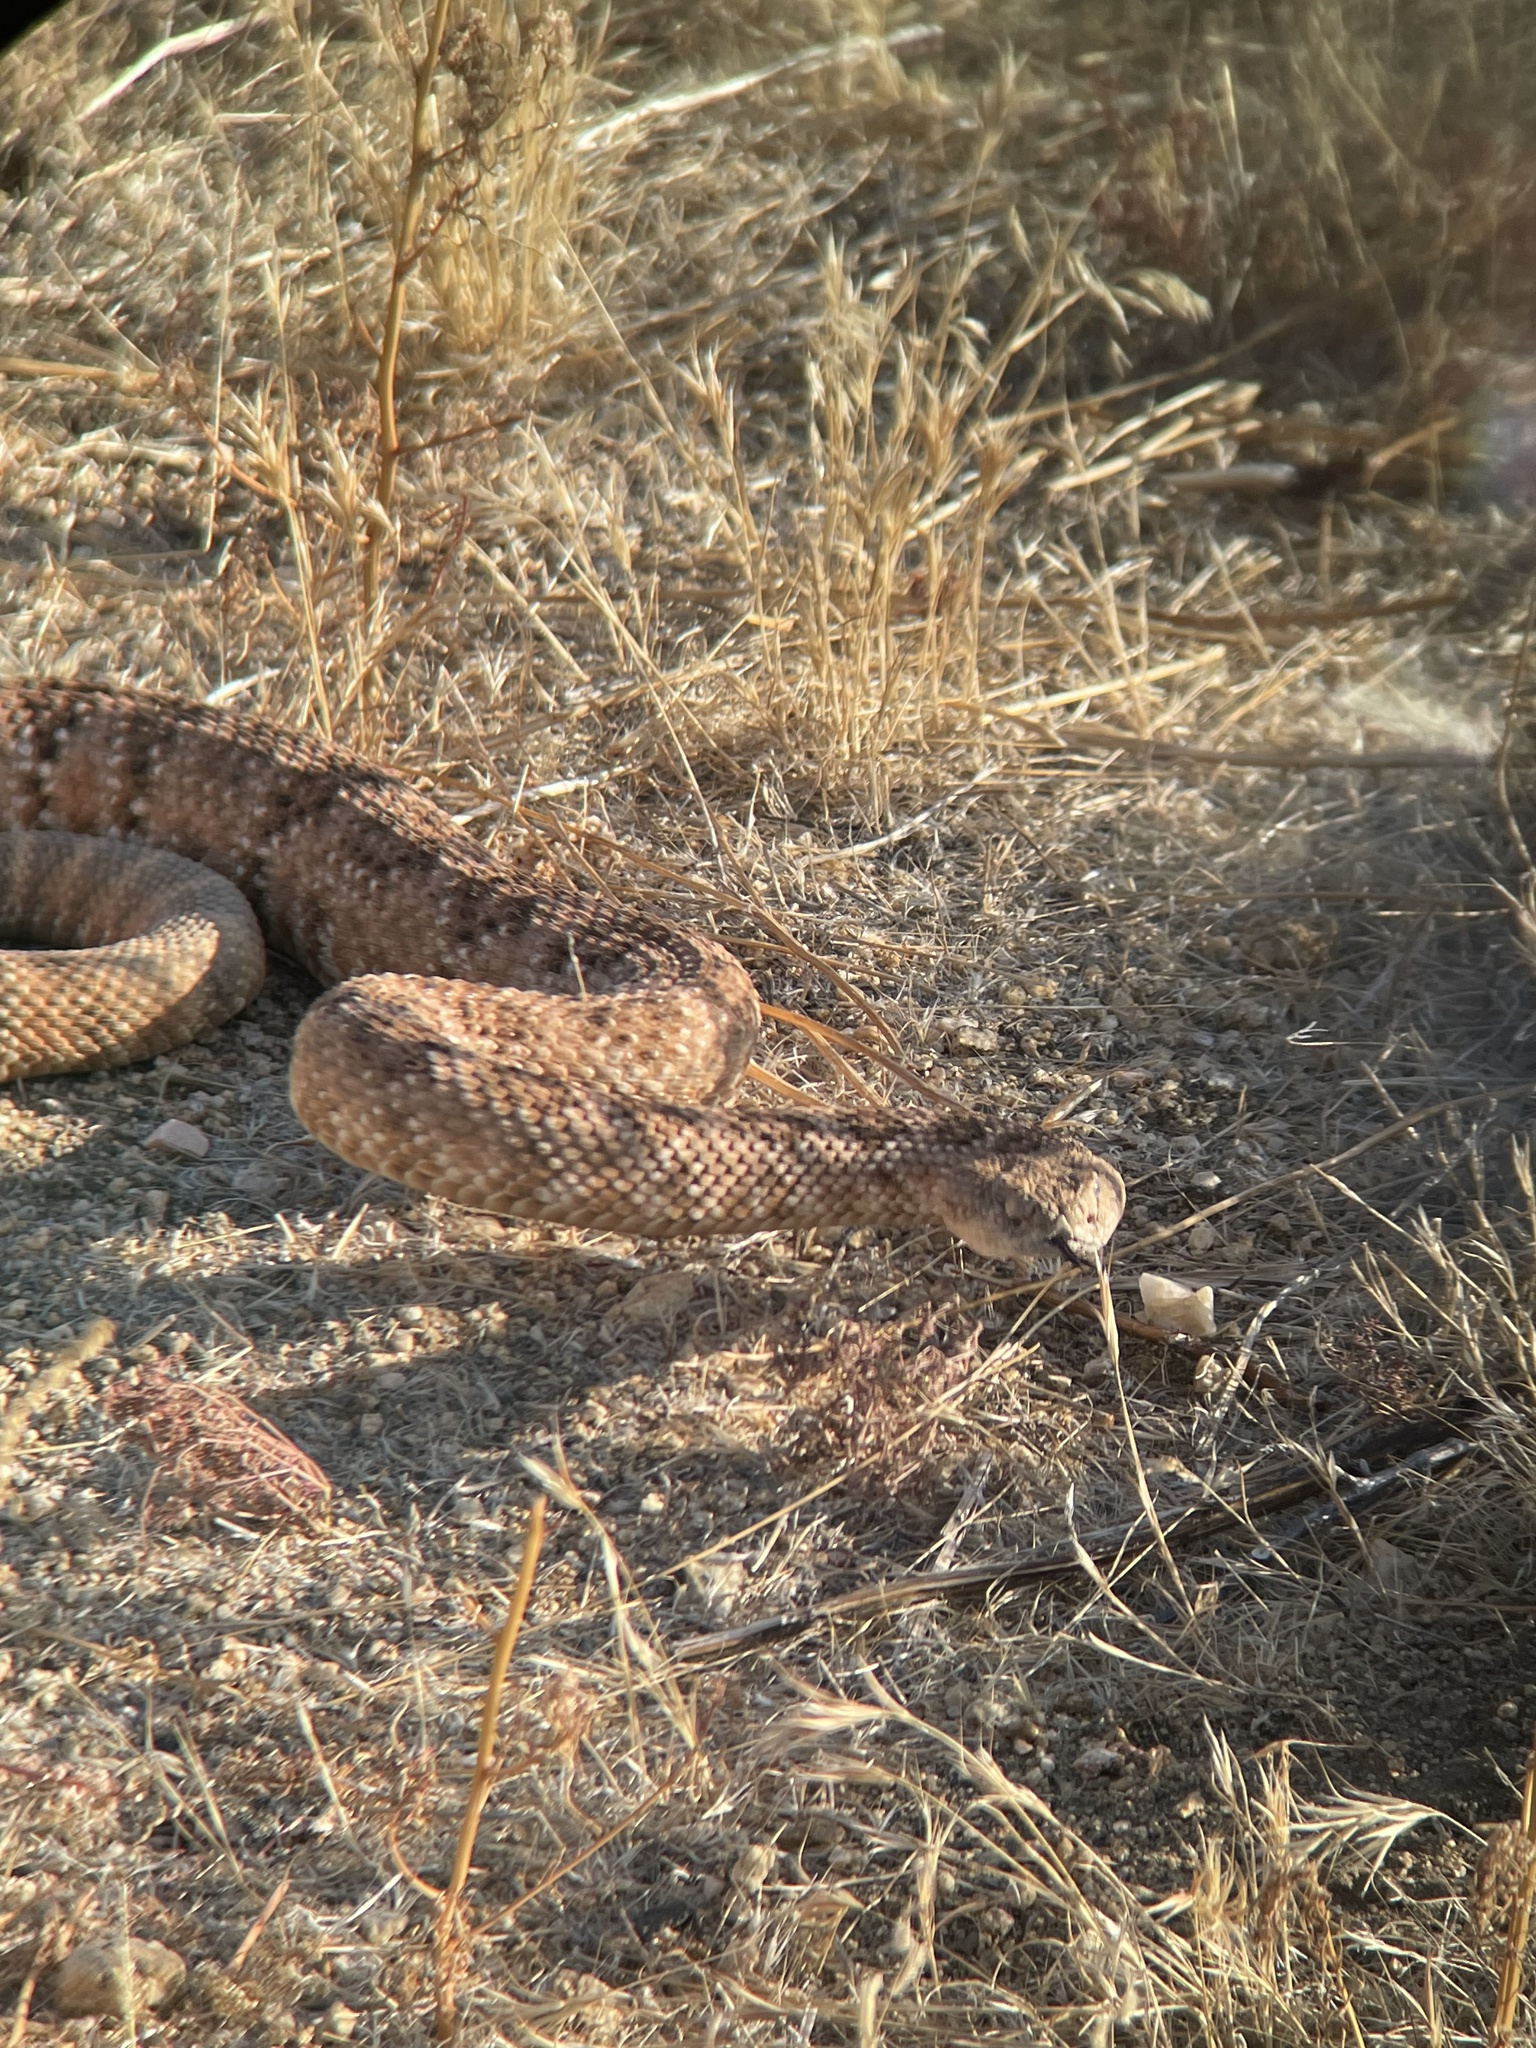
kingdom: Animalia
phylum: Chordata
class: Squamata
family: Viperidae
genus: Crotalus
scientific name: Crotalus pyrrhus
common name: Southwestern speckled rattlesnake
